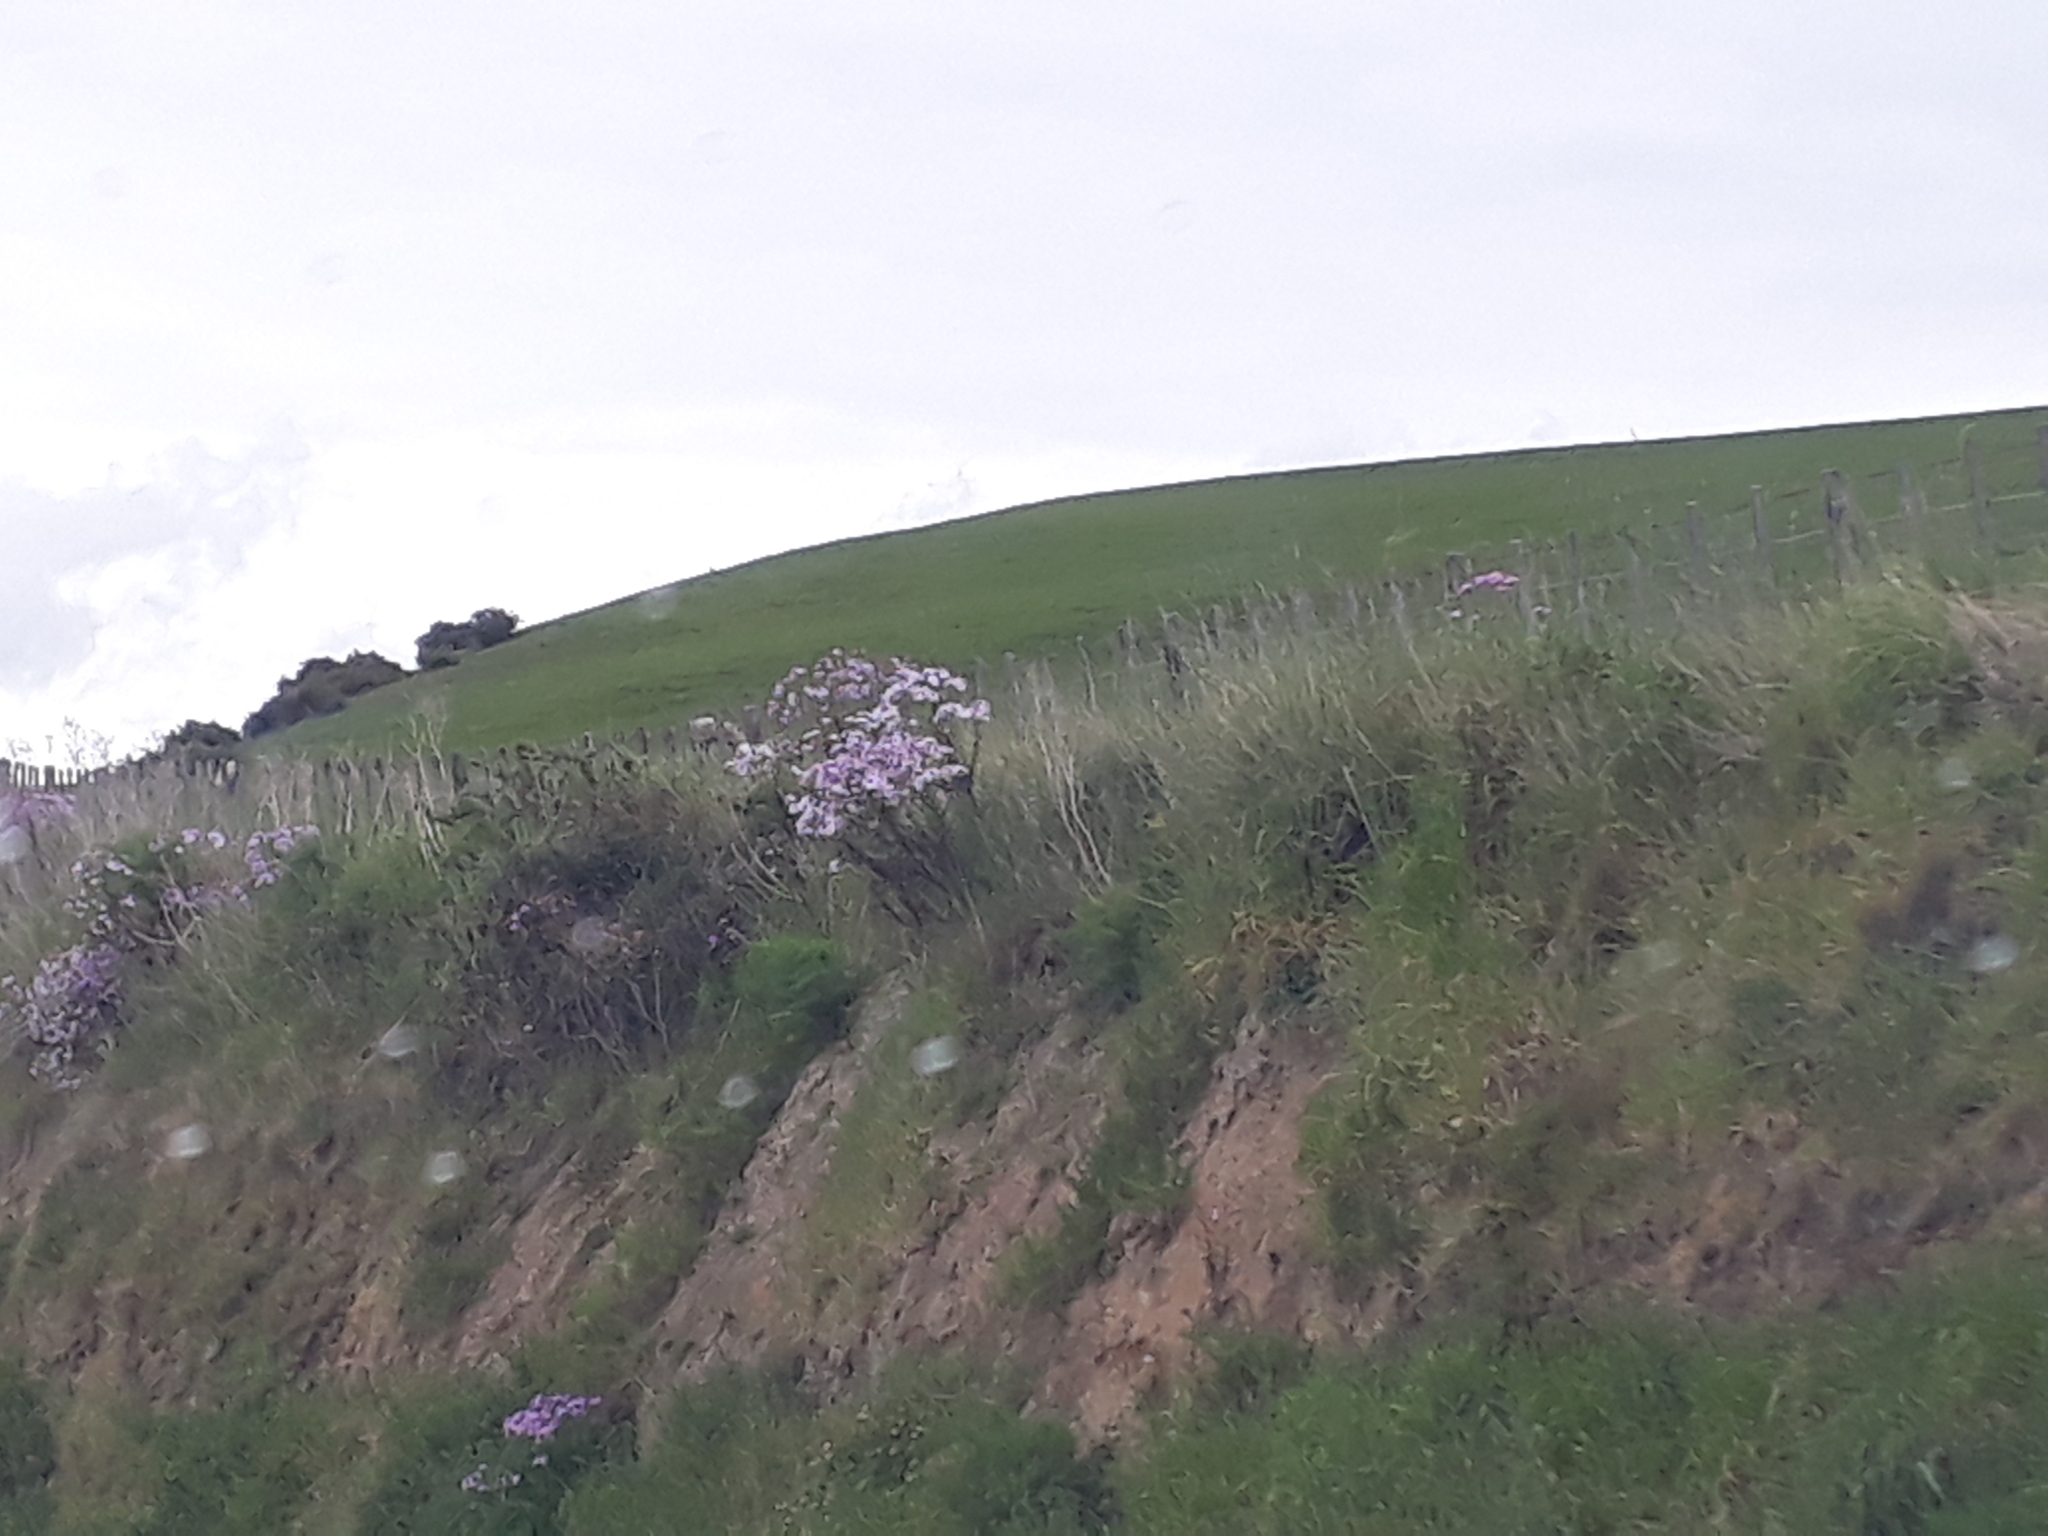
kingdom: Plantae
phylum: Tracheophyta
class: Magnoliopsida
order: Asterales
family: Asteraceae
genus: Senecio
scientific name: Senecio glastifolius
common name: Woad-leaved ragwort
